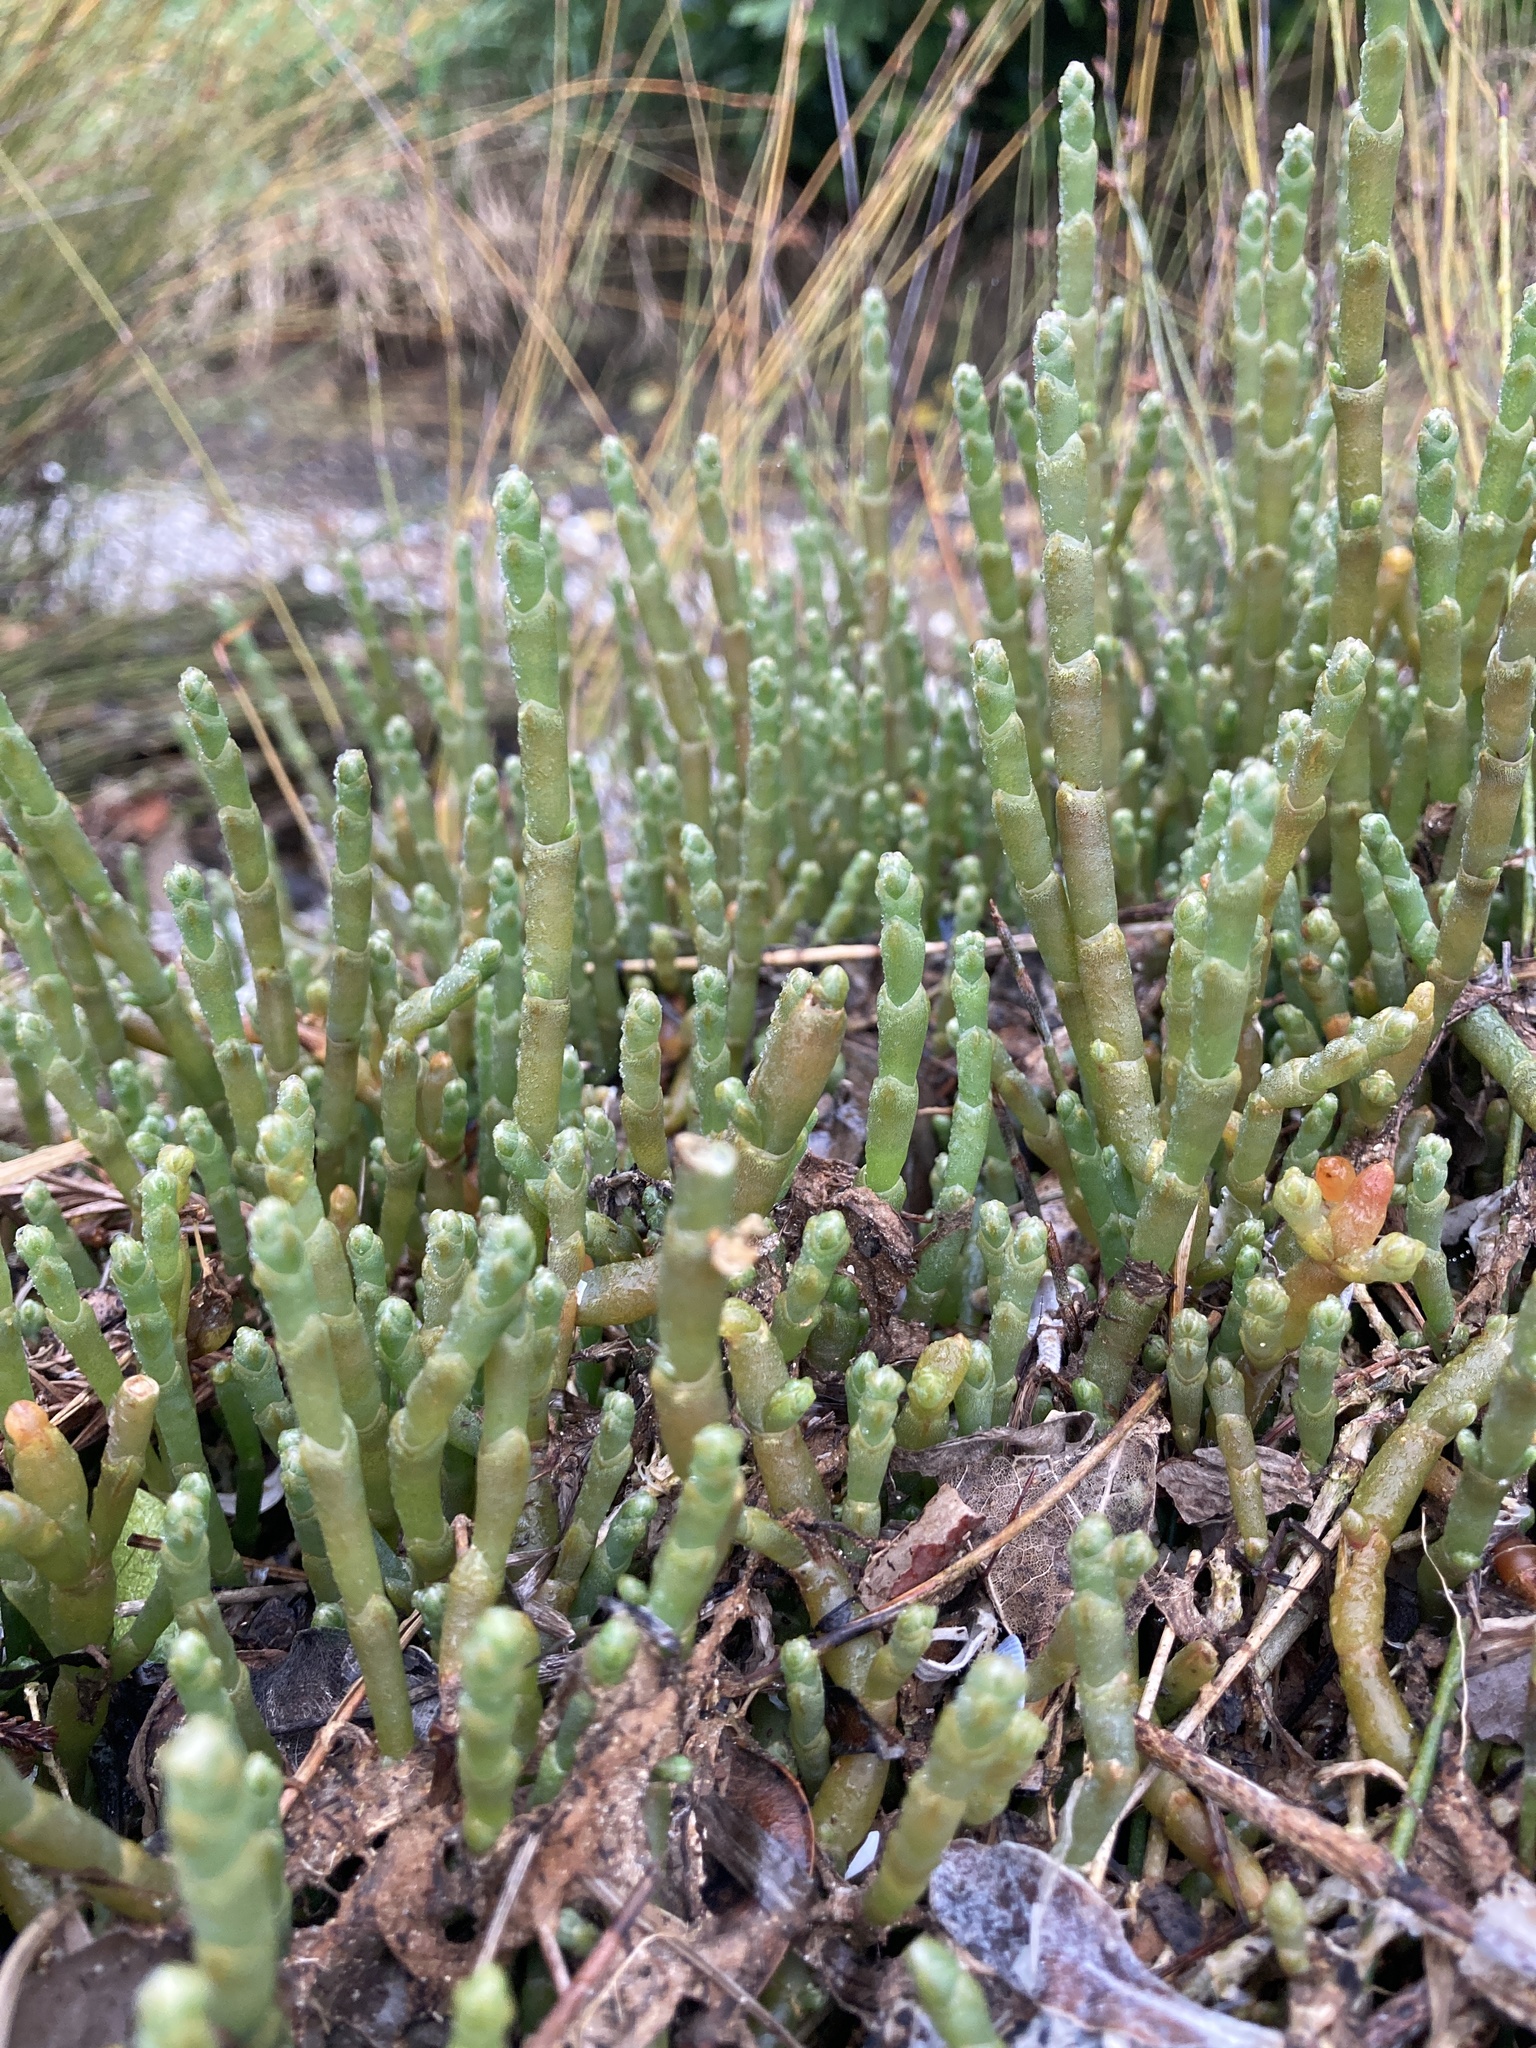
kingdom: Plantae
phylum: Tracheophyta
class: Magnoliopsida
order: Caryophyllales
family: Amaranthaceae
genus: Salicornia
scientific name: Salicornia quinqueflora
